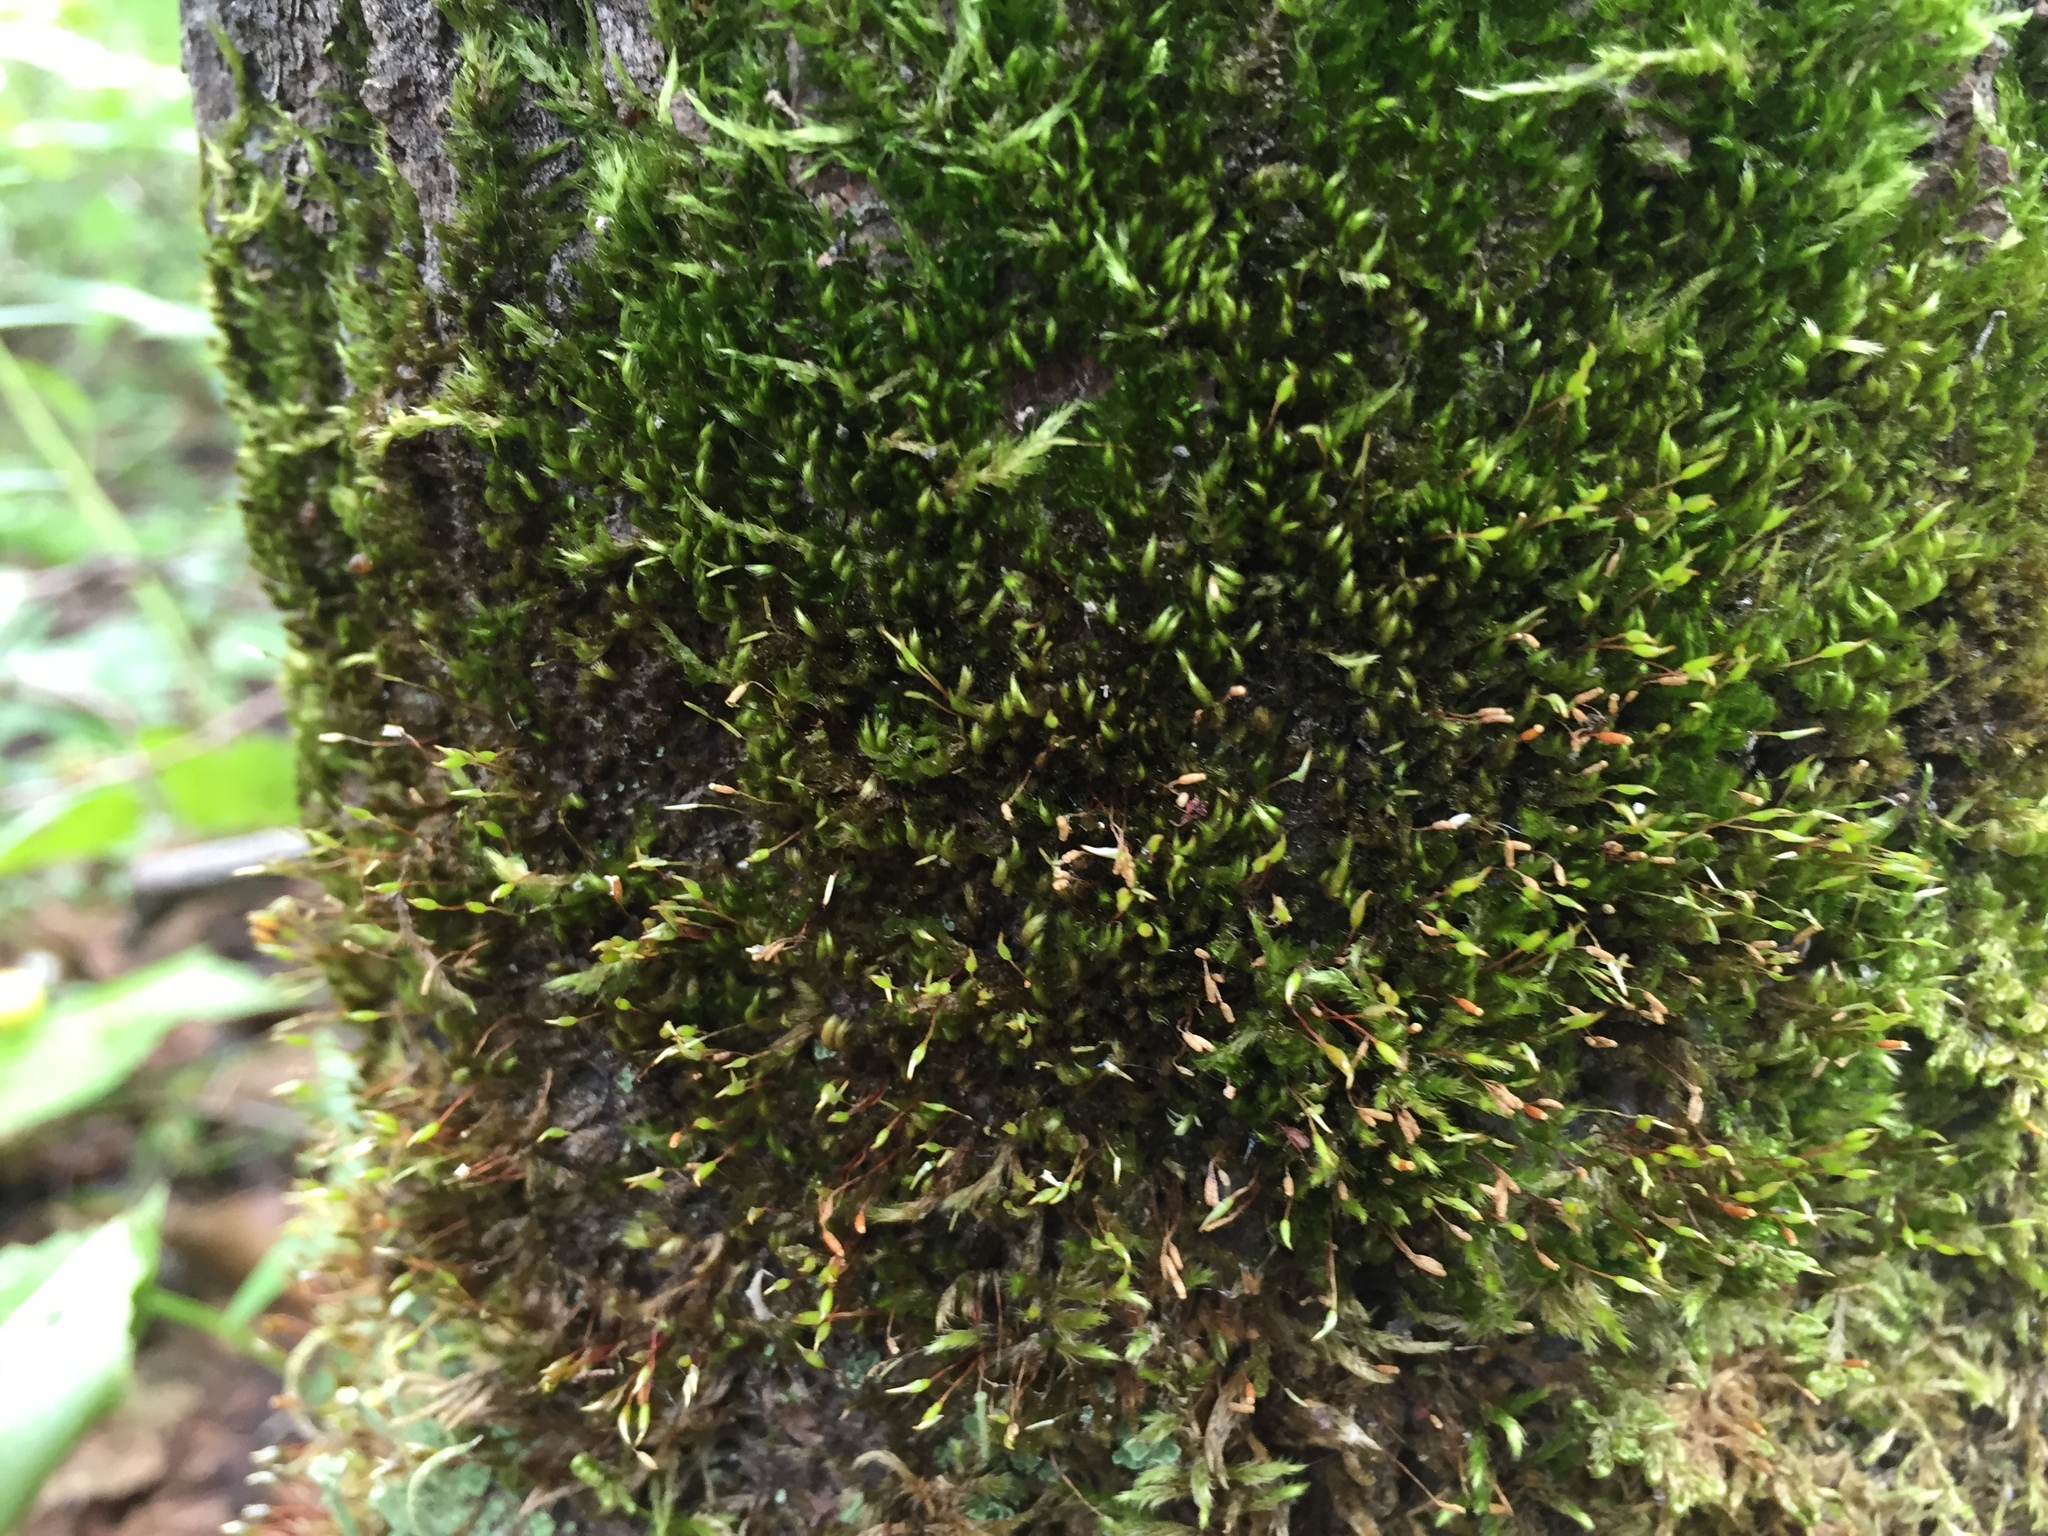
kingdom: Plantae
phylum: Bryophyta
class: Bryopsida
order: Hypnales
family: Pylaisiaceae
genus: Pylaisia
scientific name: Pylaisia polyantha
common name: Many-flowered leskea
